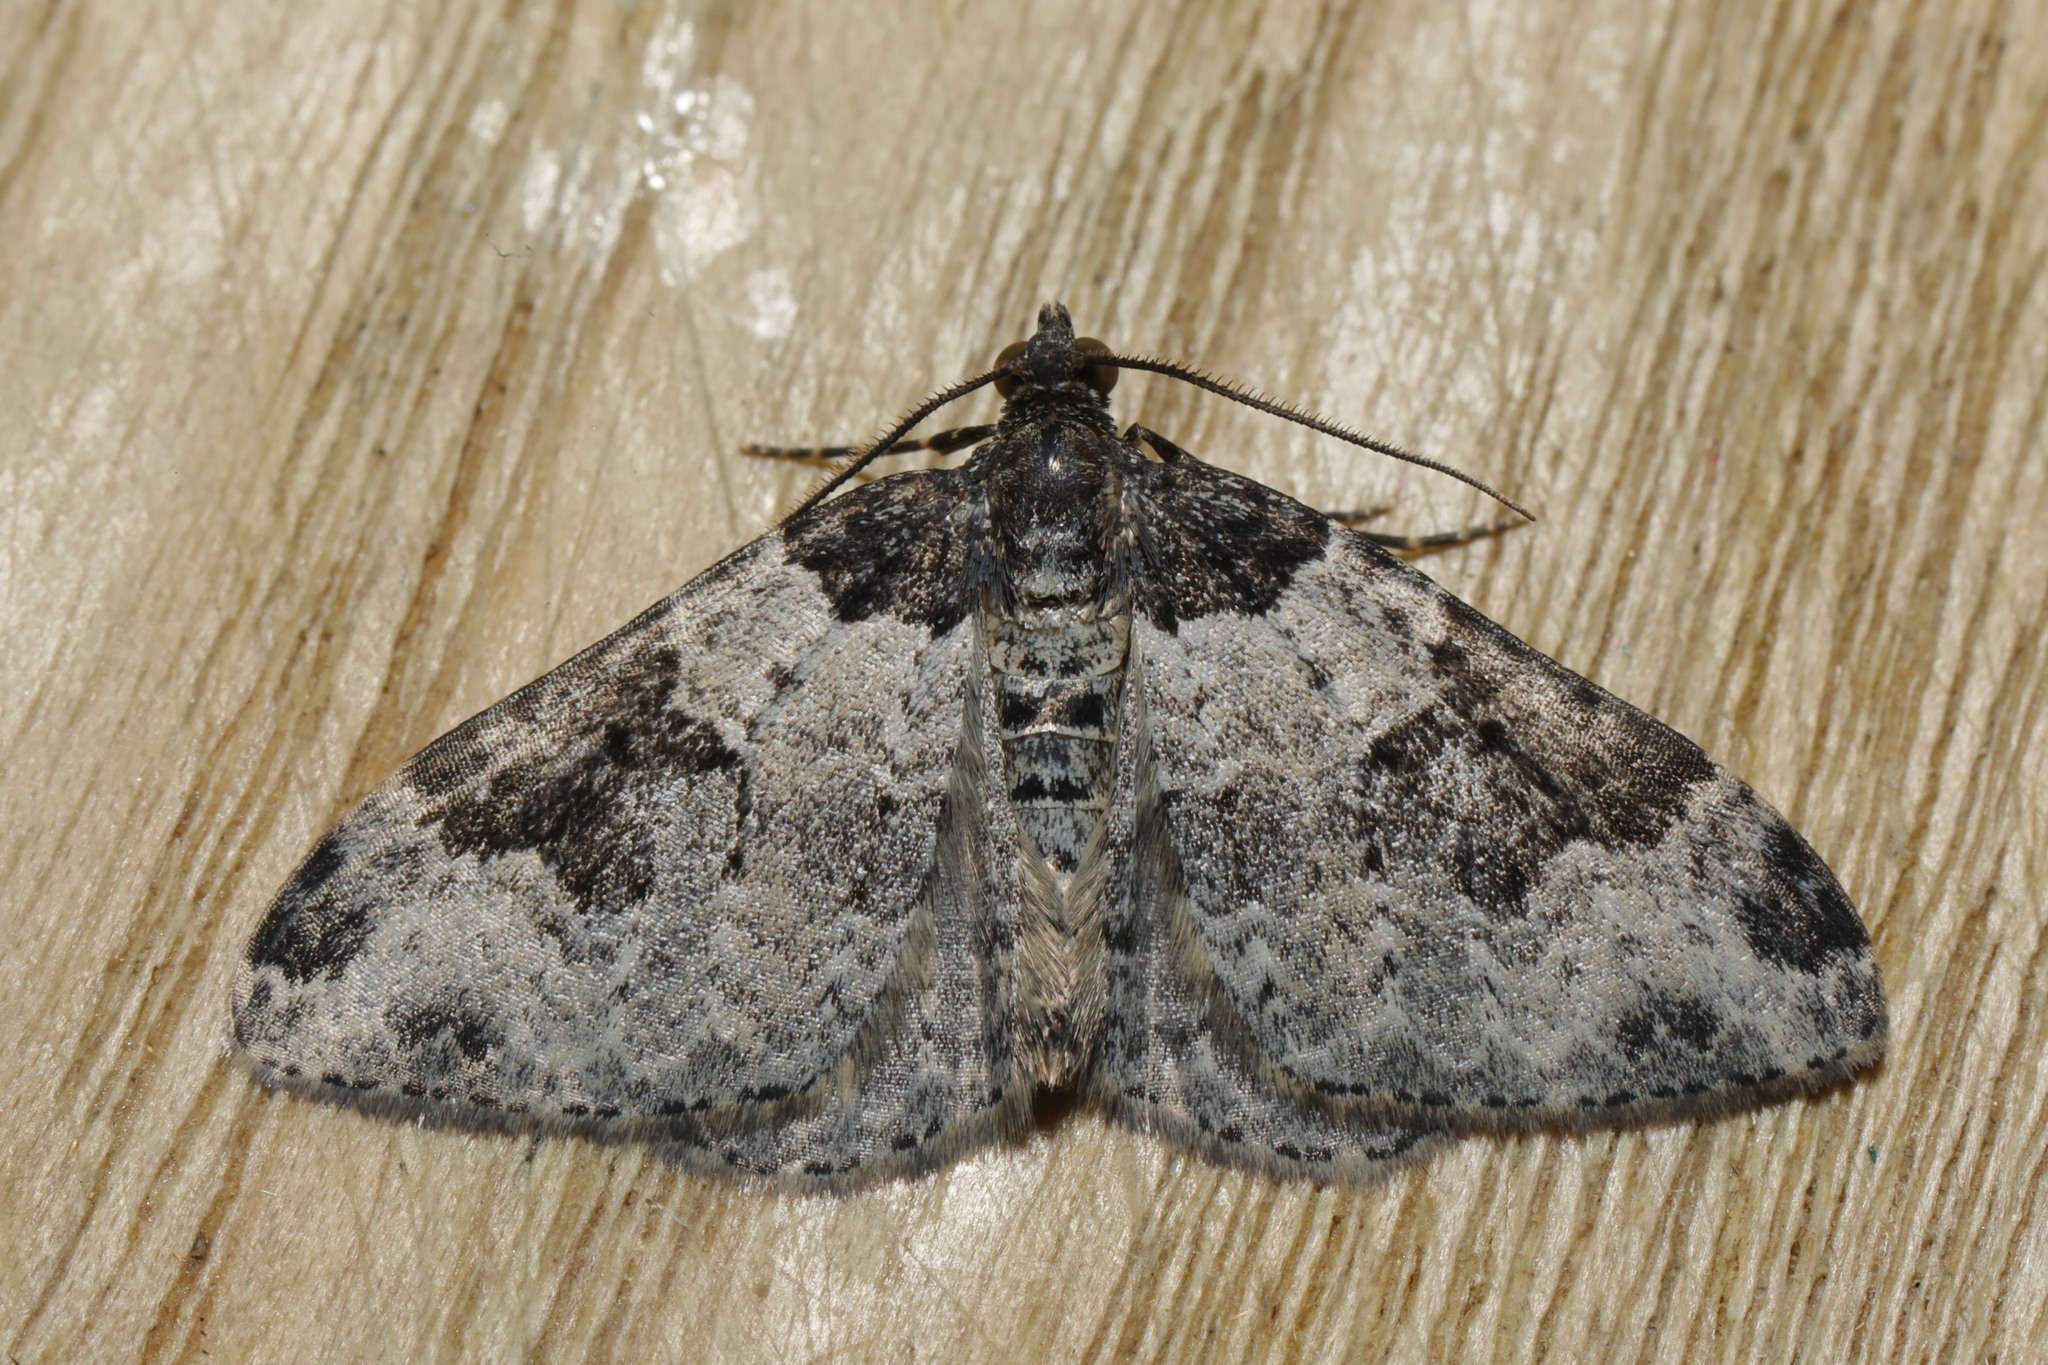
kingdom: Animalia
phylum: Arthropoda
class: Insecta
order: Lepidoptera
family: Geometridae
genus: Xanthorhoe
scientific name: Xanthorhoe fluctuata
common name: Garden carpet
